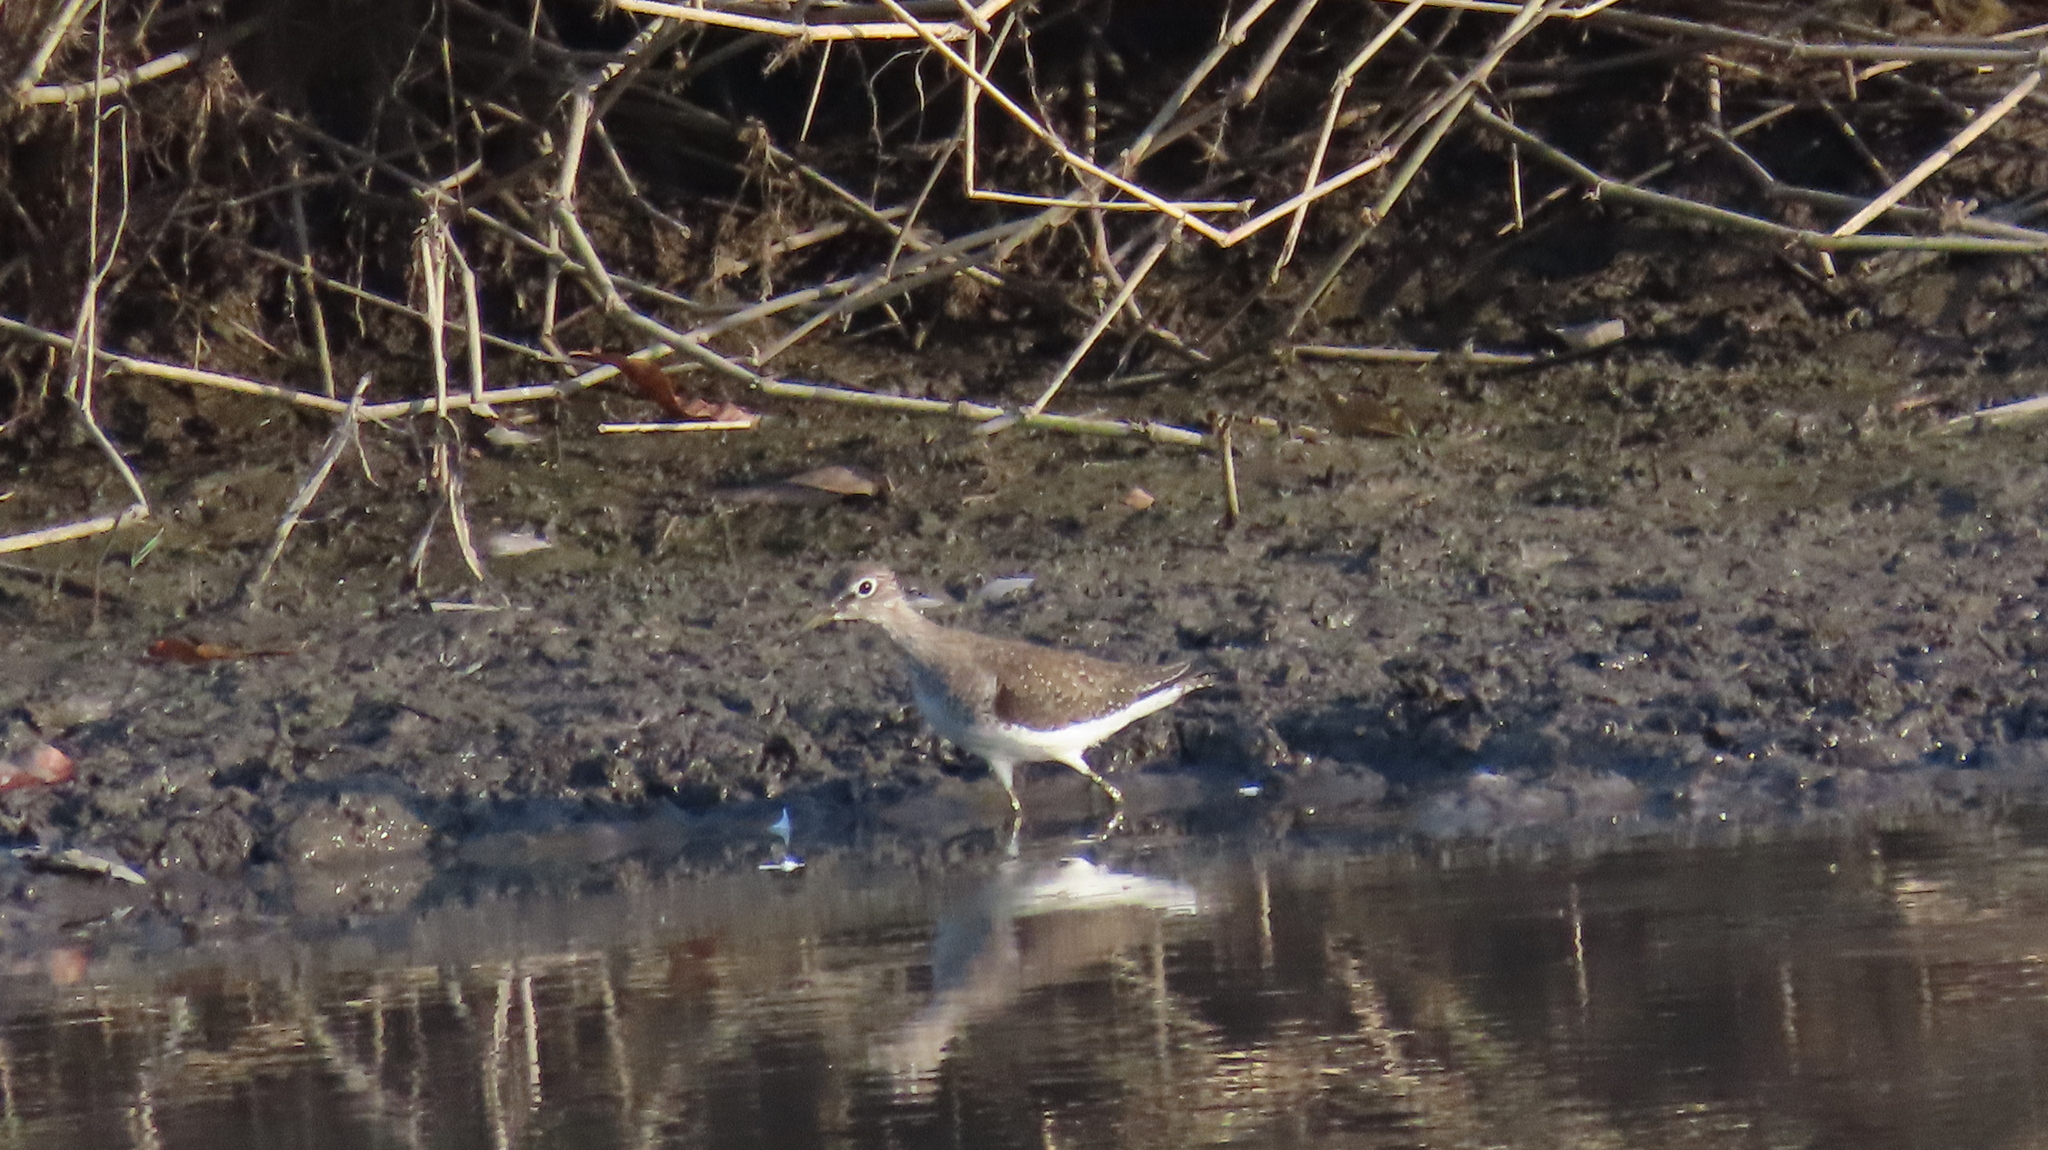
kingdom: Animalia
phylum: Chordata
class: Aves
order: Charadriiformes
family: Scolopacidae
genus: Tringa
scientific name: Tringa solitaria
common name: Solitary sandpiper
